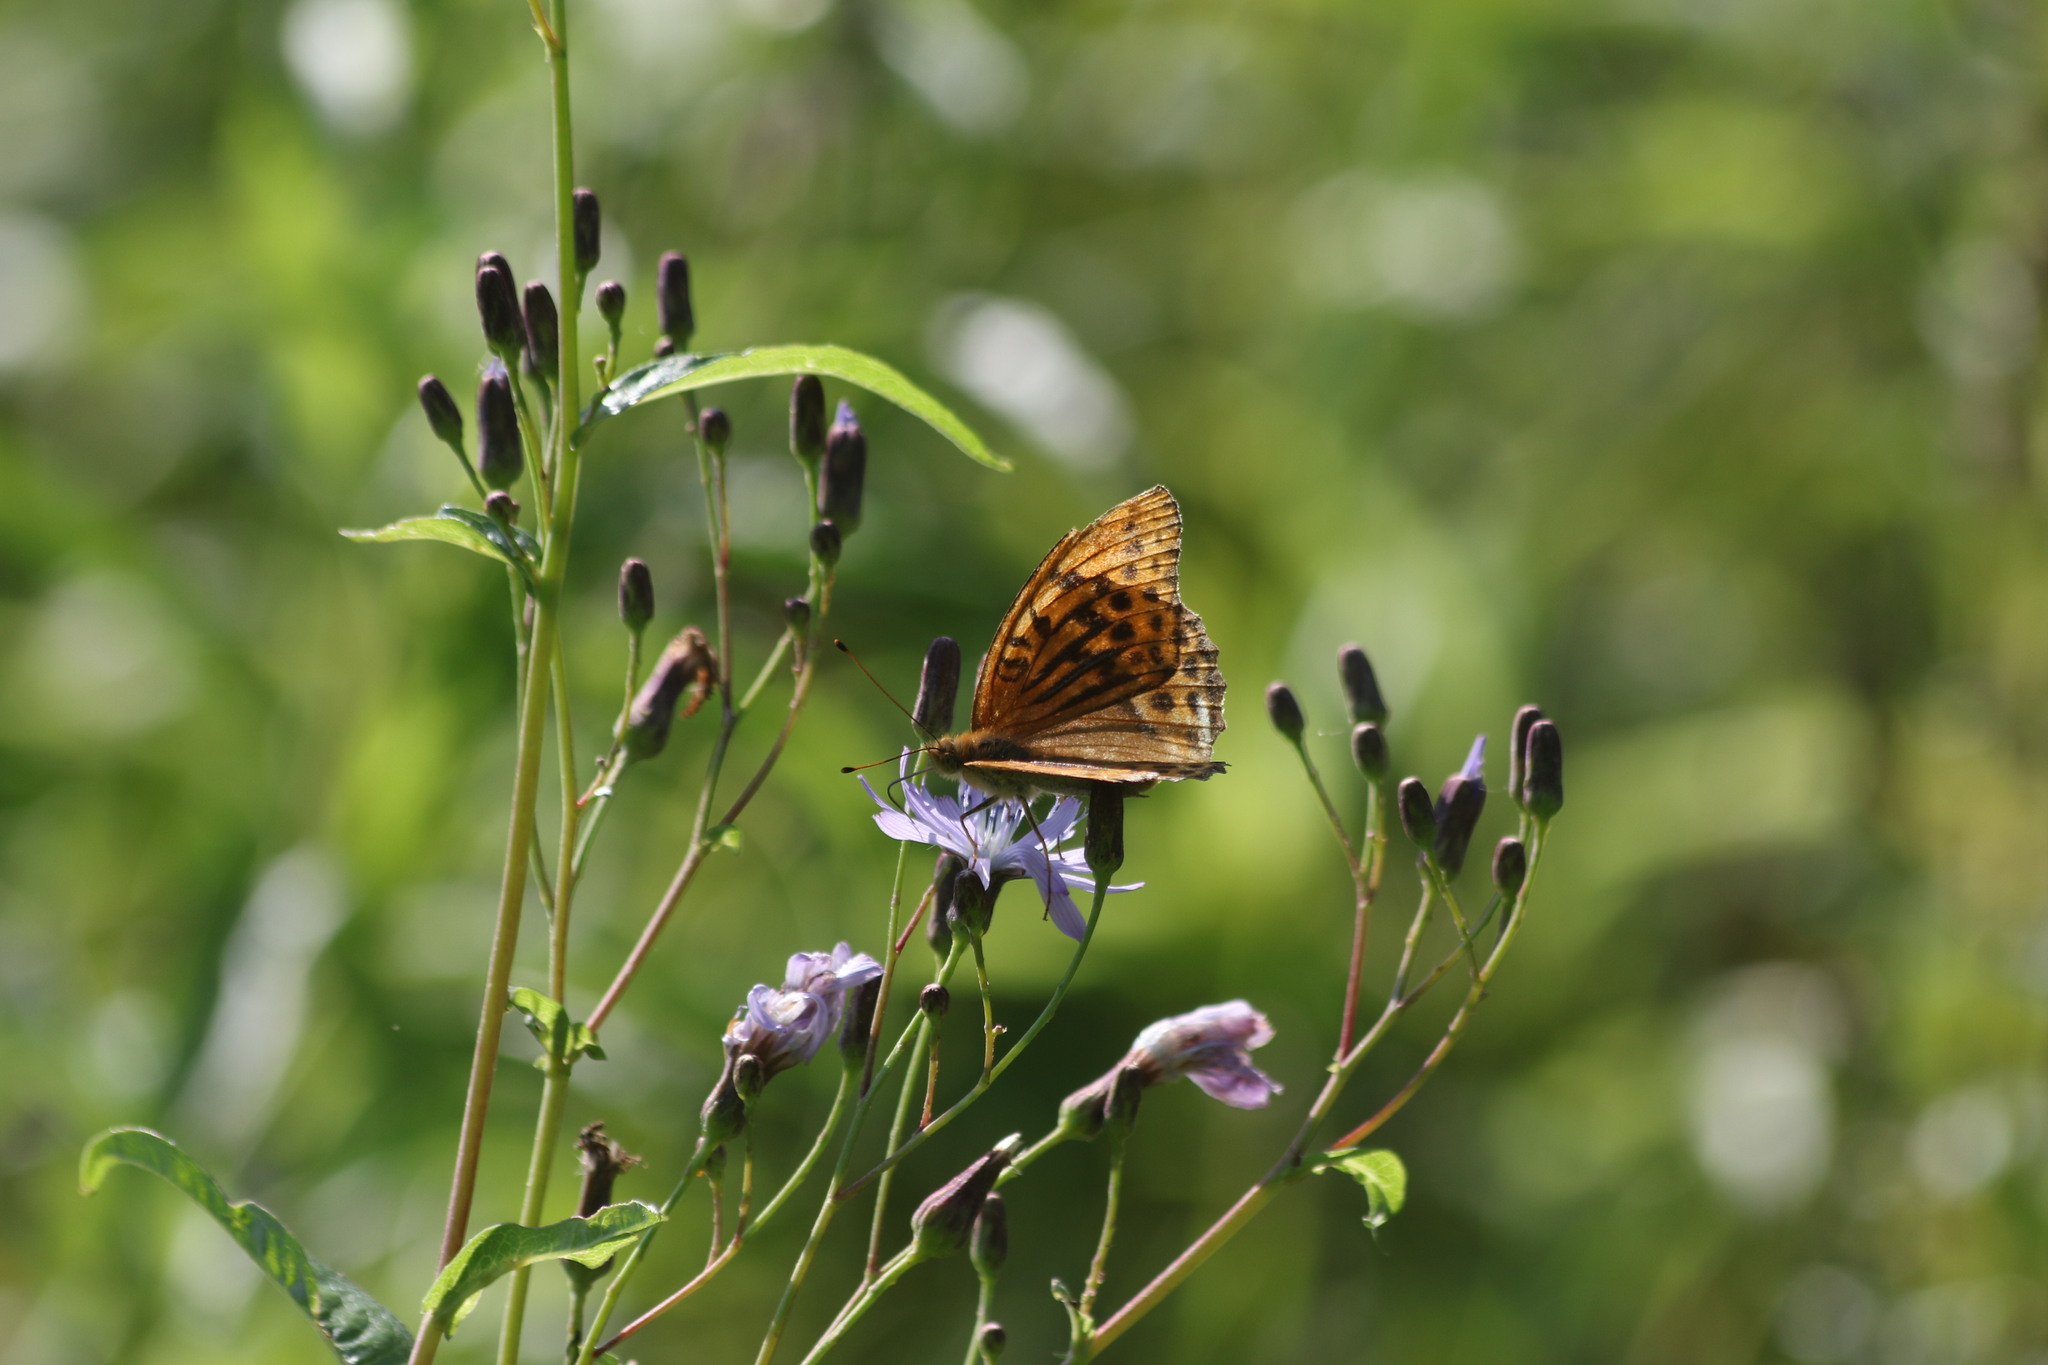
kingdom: Animalia
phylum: Arthropoda
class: Insecta
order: Lepidoptera
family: Nymphalidae
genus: Argynnis
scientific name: Argynnis paphia
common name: Silver-washed fritillary
